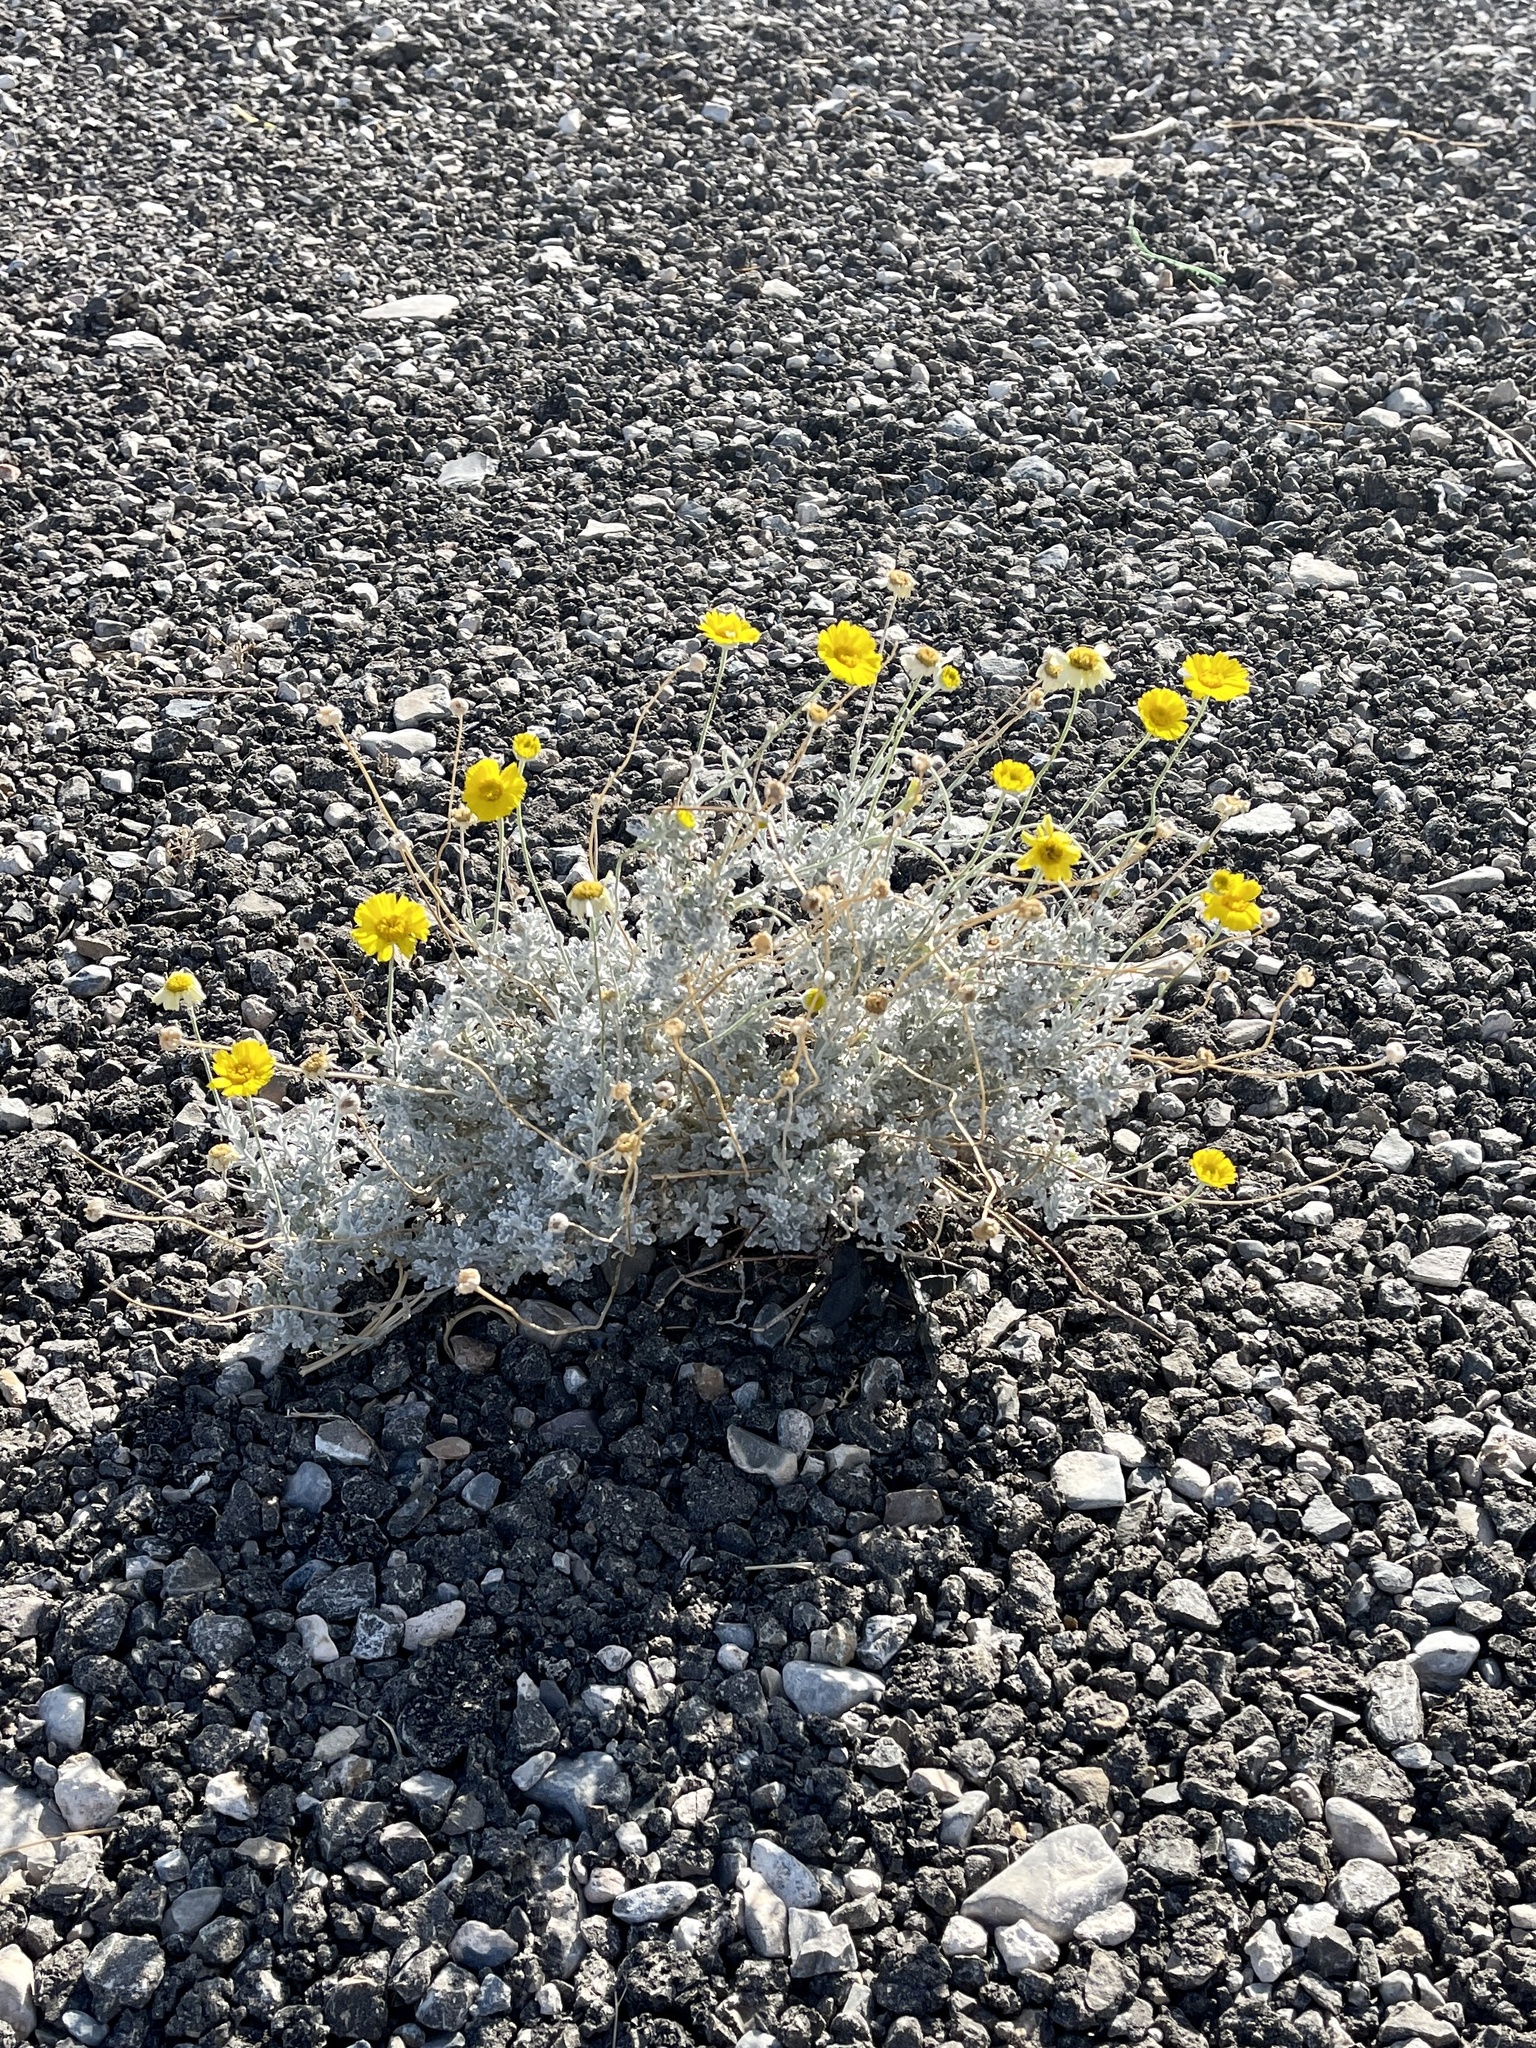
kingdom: Plantae
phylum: Tracheophyta
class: Magnoliopsida
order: Asterales
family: Asteraceae
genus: Baileya
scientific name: Baileya multiradiata
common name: Desert-marigold
